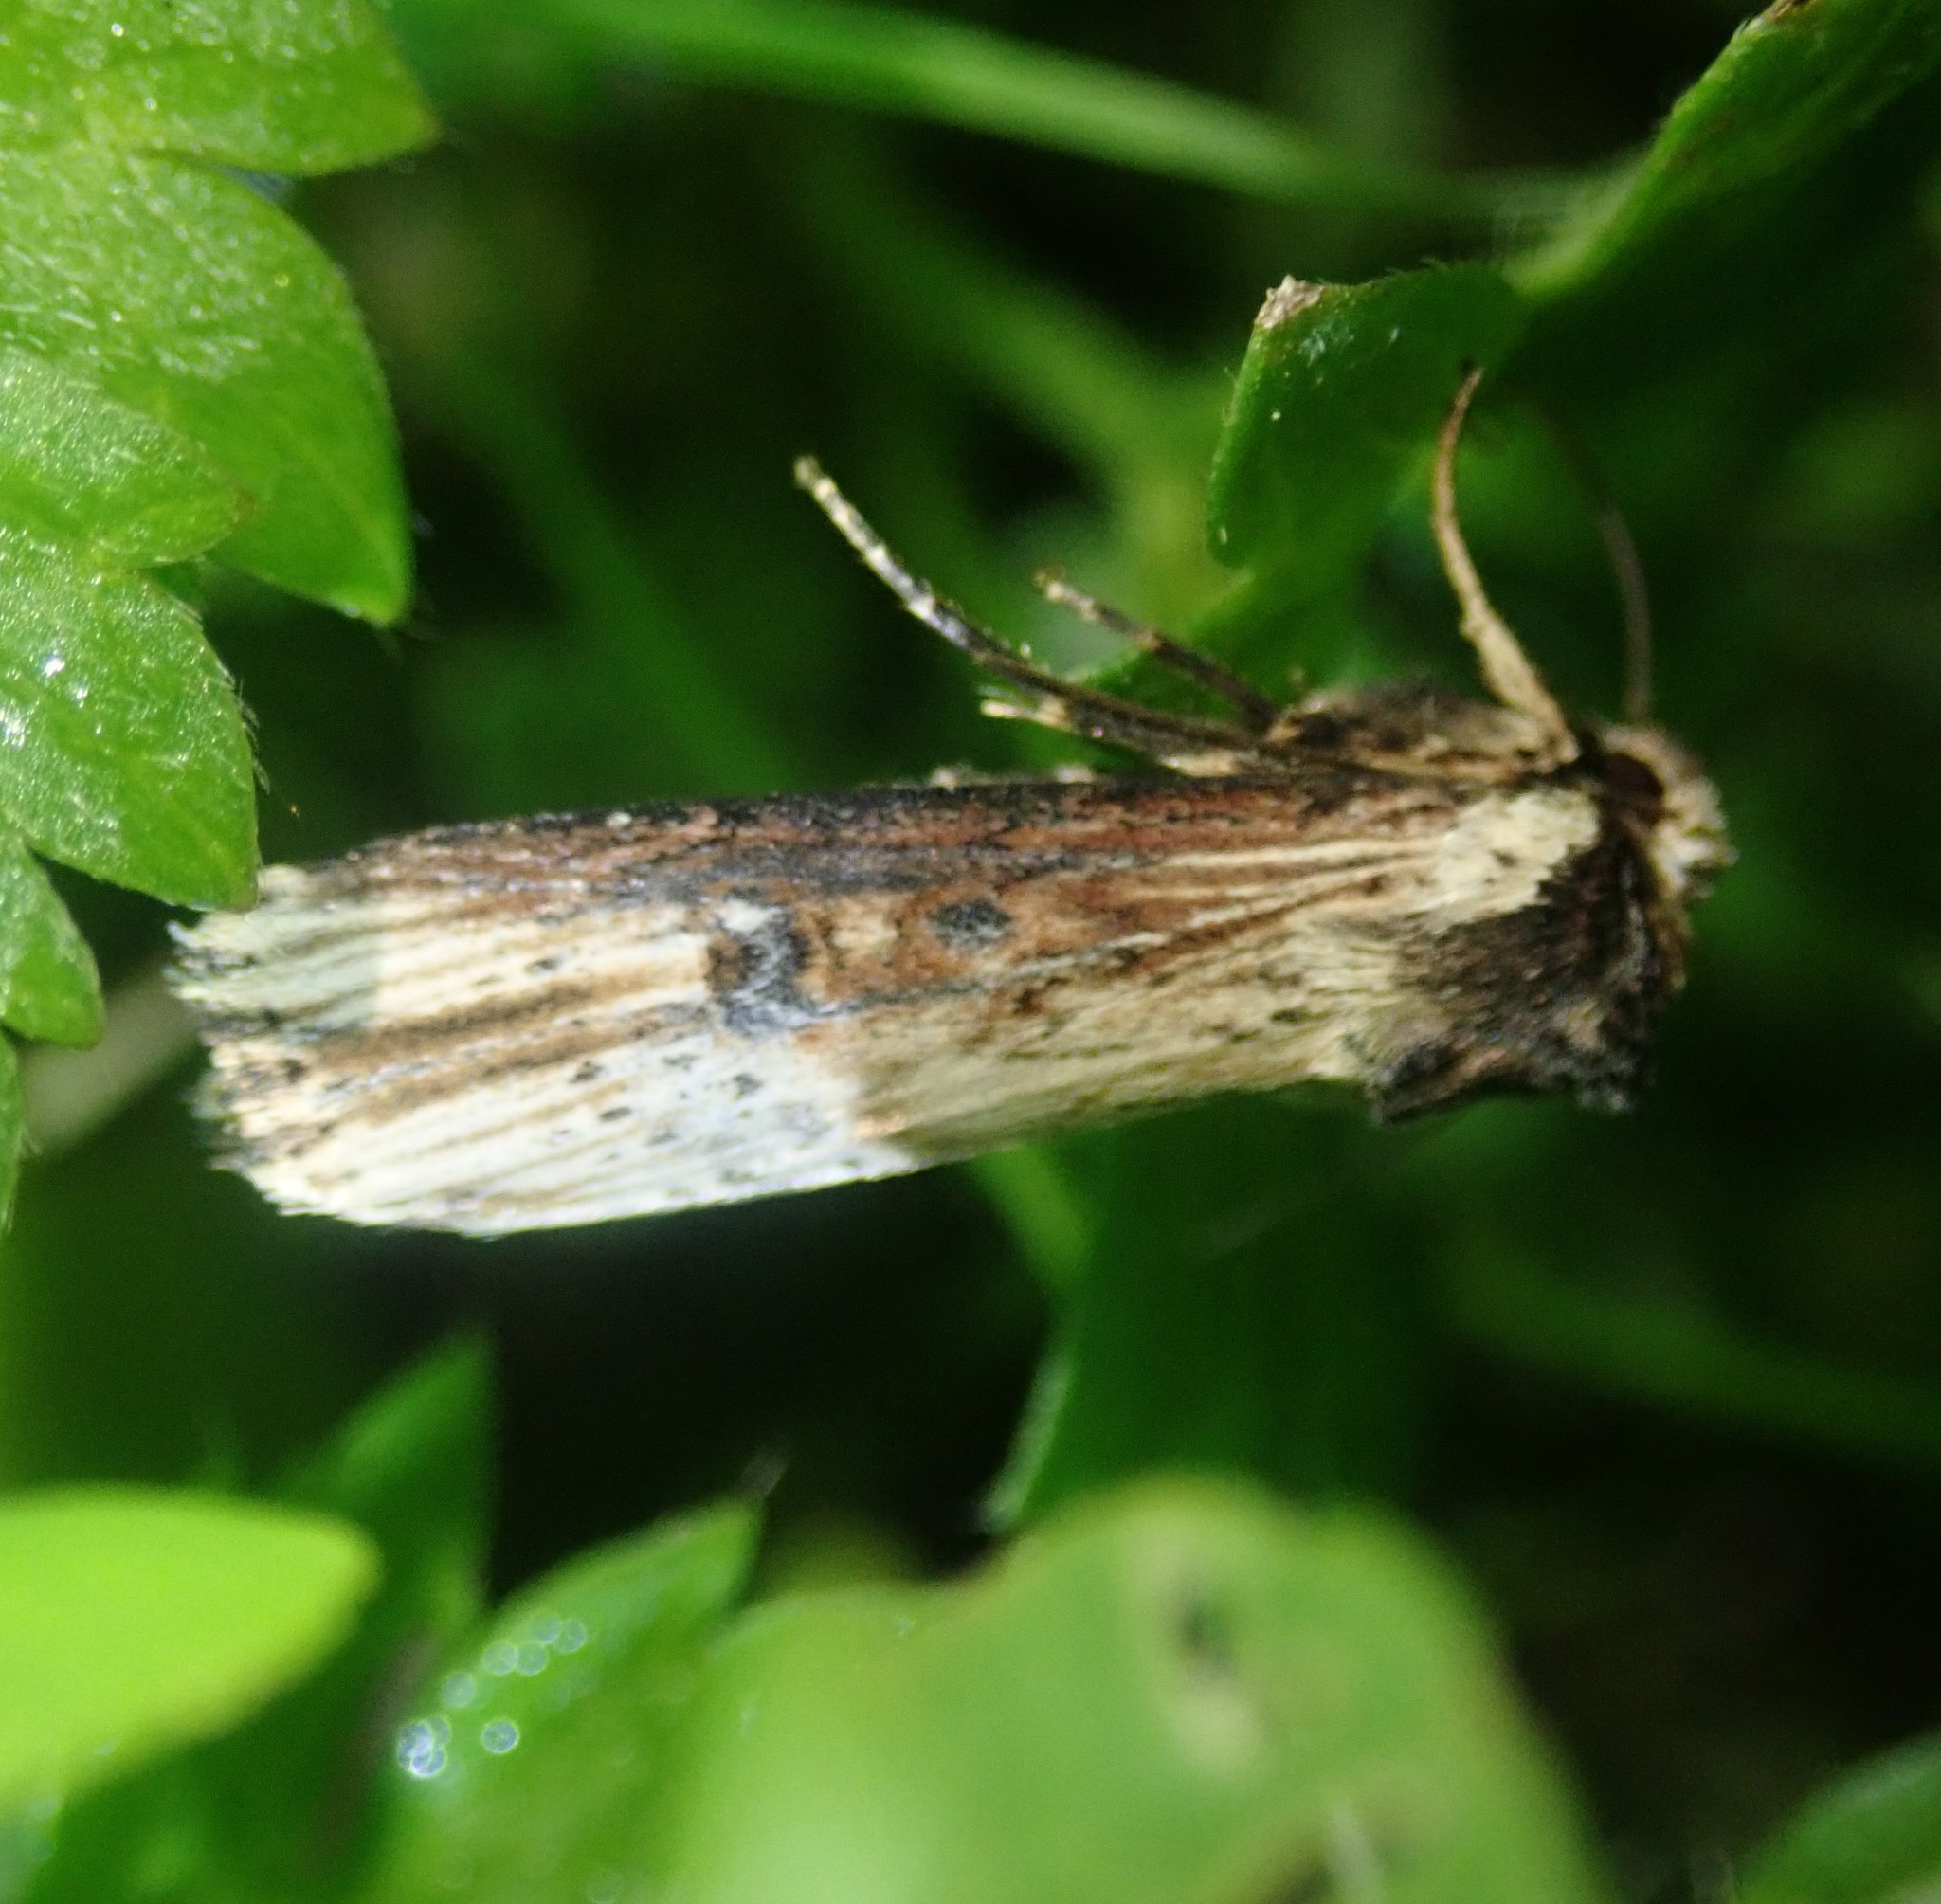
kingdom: Animalia
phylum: Arthropoda
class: Insecta
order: Lepidoptera
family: Noctuidae
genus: Axylia
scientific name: Axylia putris
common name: Flame
